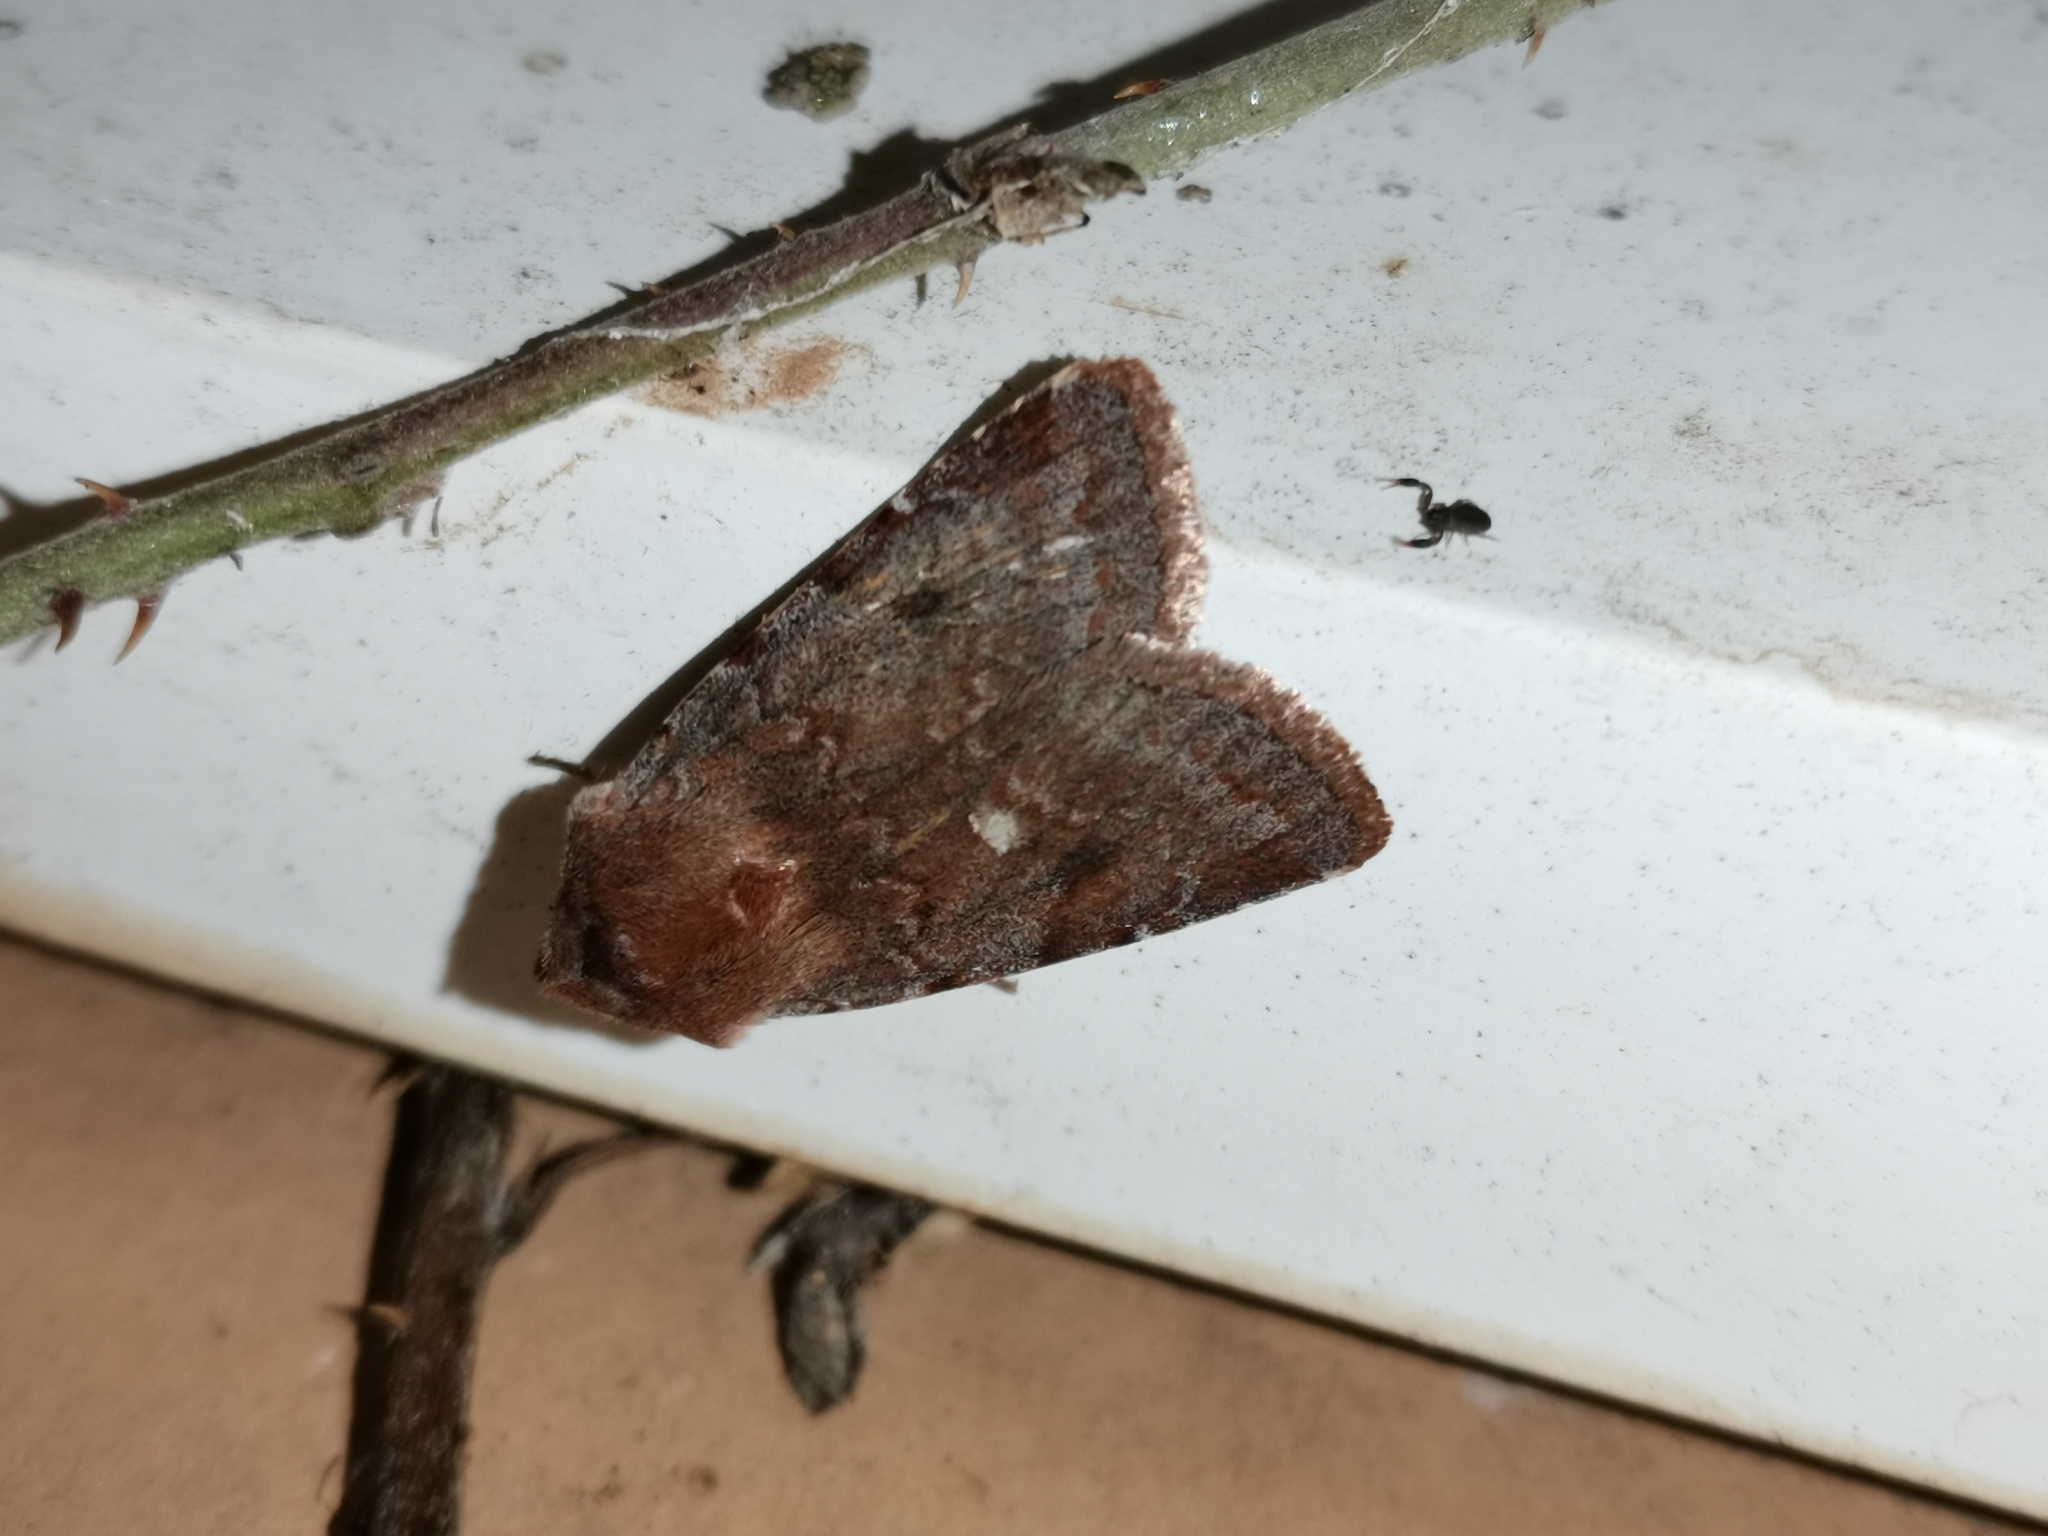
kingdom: Animalia
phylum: Arthropoda
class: Insecta
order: Lepidoptera
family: Noctuidae
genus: Cerastis
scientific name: Cerastis rubricosa
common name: Red chestnut
